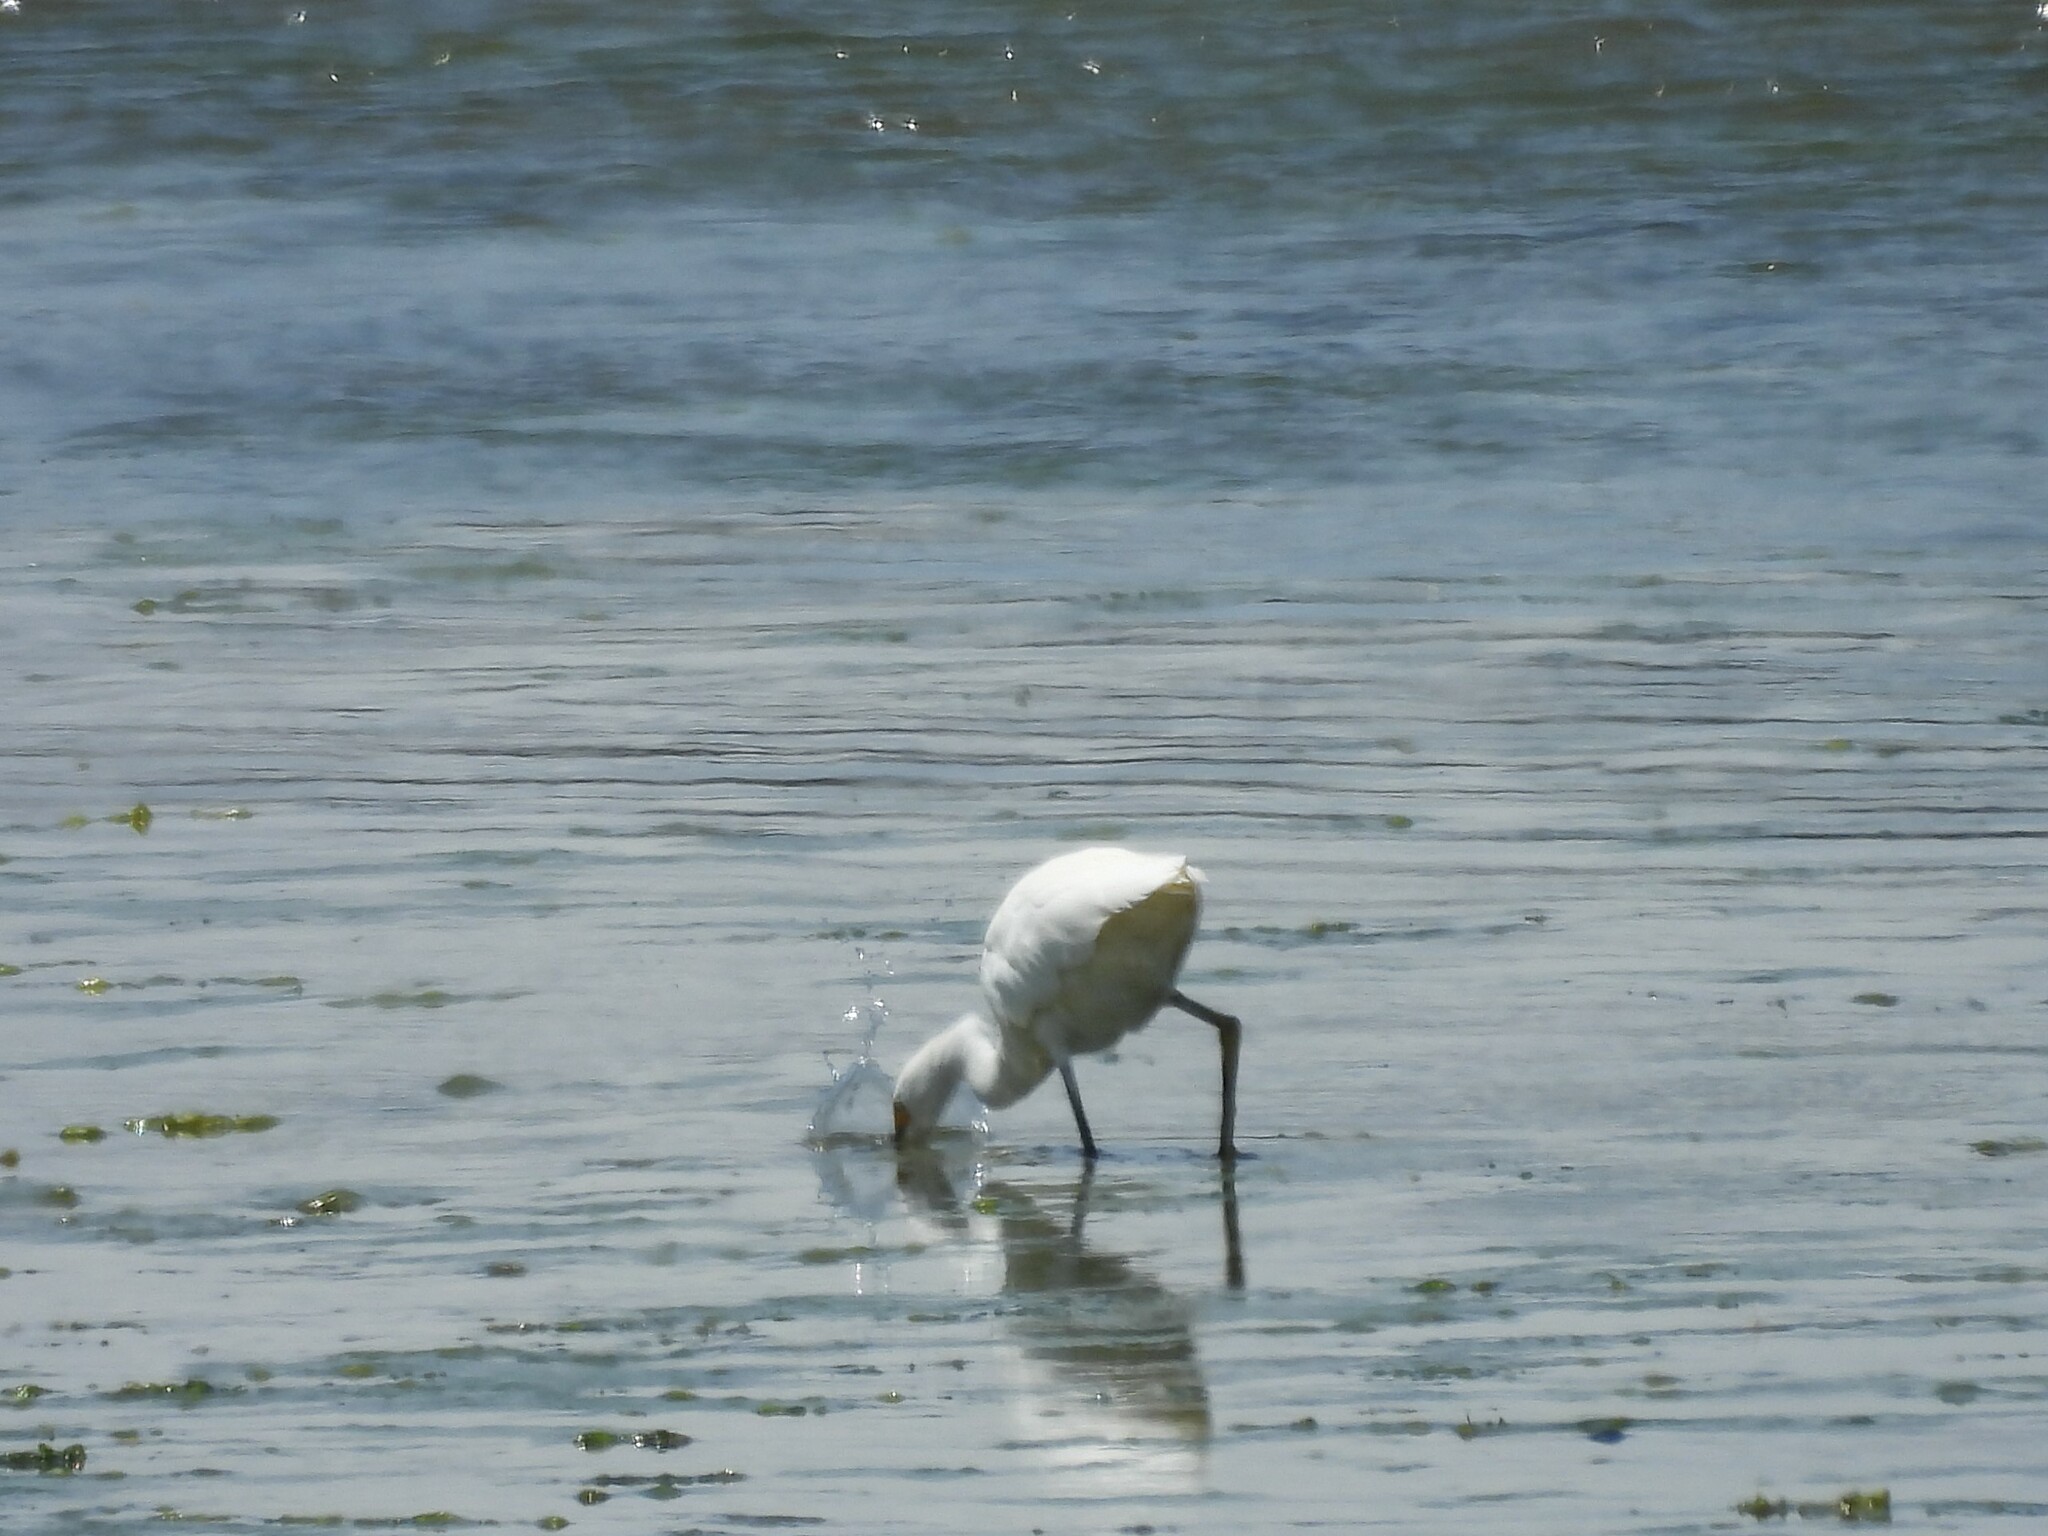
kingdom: Animalia
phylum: Chordata
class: Aves
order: Pelecaniformes
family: Ardeidae
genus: Egretta
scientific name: Egretta thula
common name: Snowy egret
